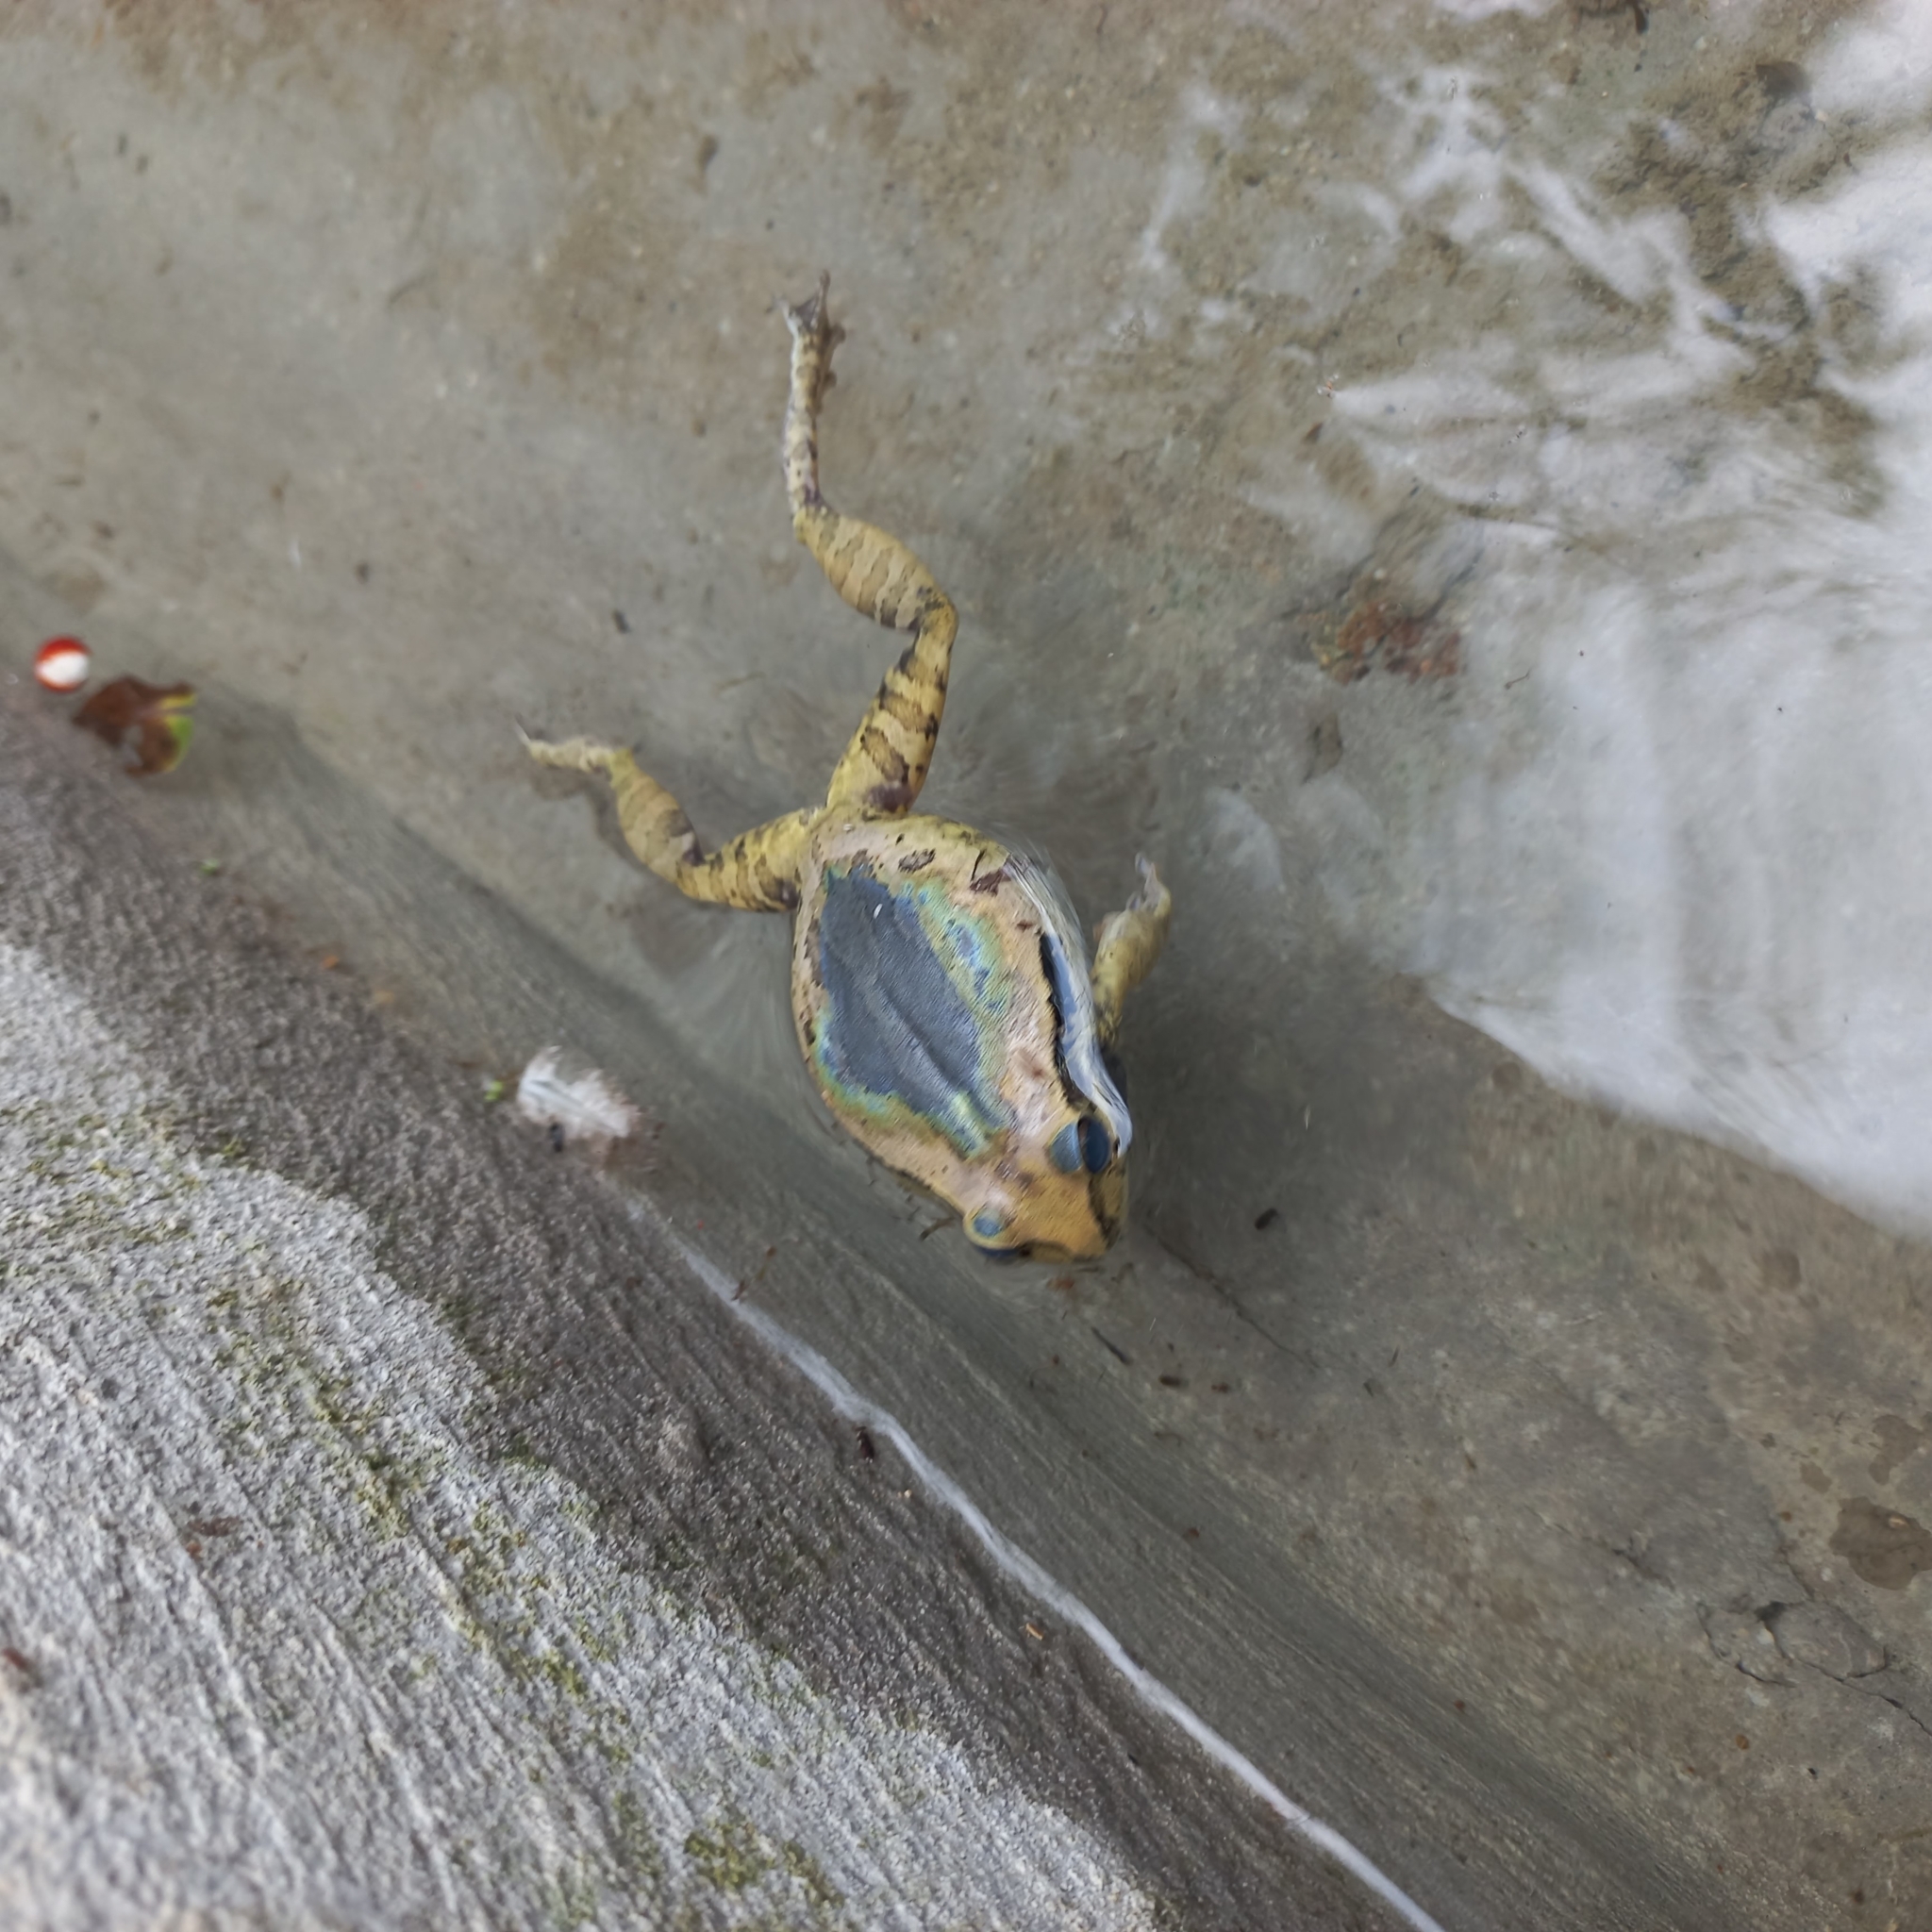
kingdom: Animalia
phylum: Chordata
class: Amphibia
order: Anura
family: Hylidae
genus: Smilisca
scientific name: Smilisca baudinii
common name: Mexican smilisca
